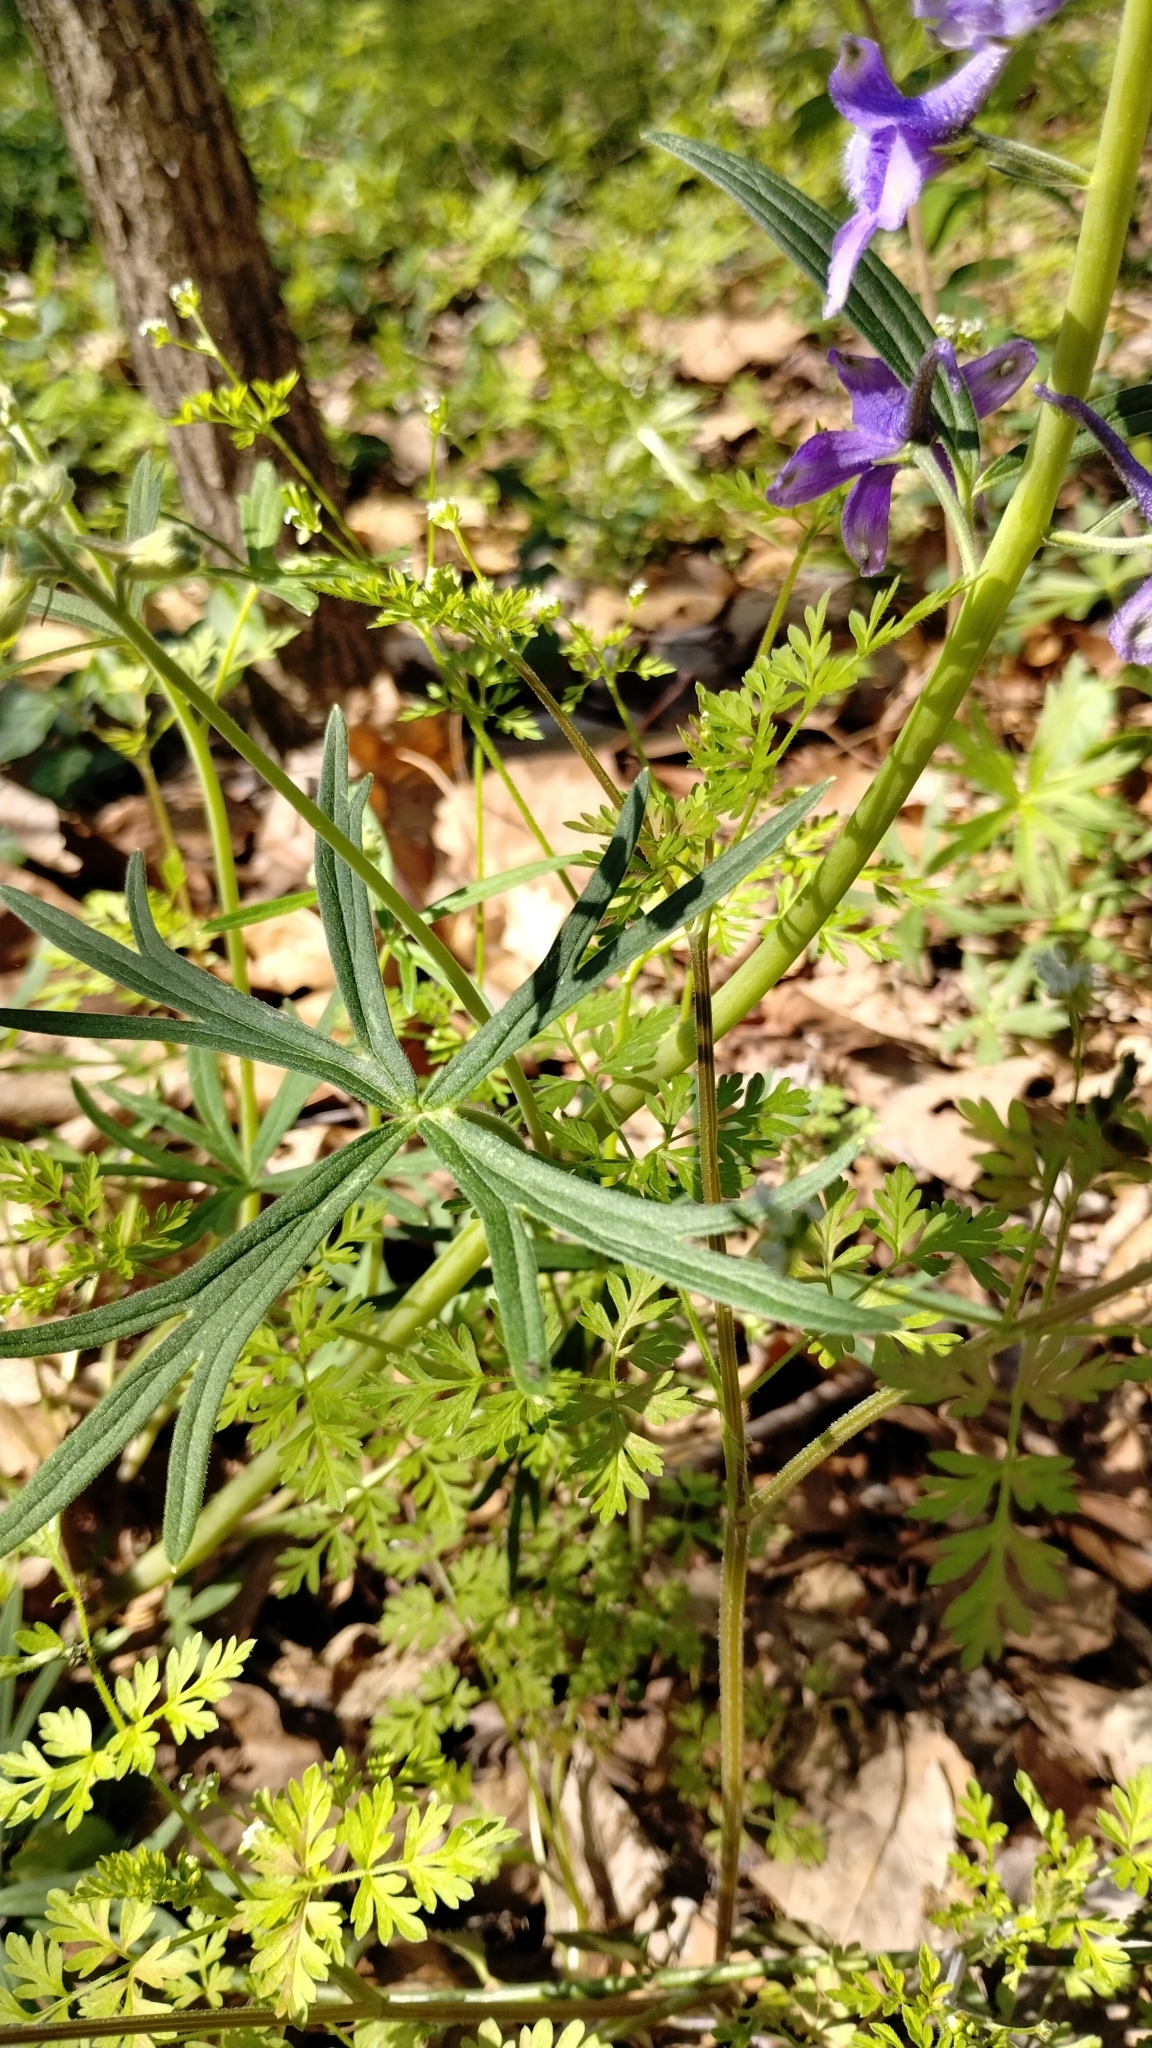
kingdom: Plantae
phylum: Tracheophyta
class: Magnoliopsida
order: Ranunculales
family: Ranunculaceae
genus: Delphinium
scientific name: Delphinium tricorne
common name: Dwarf larkspur
